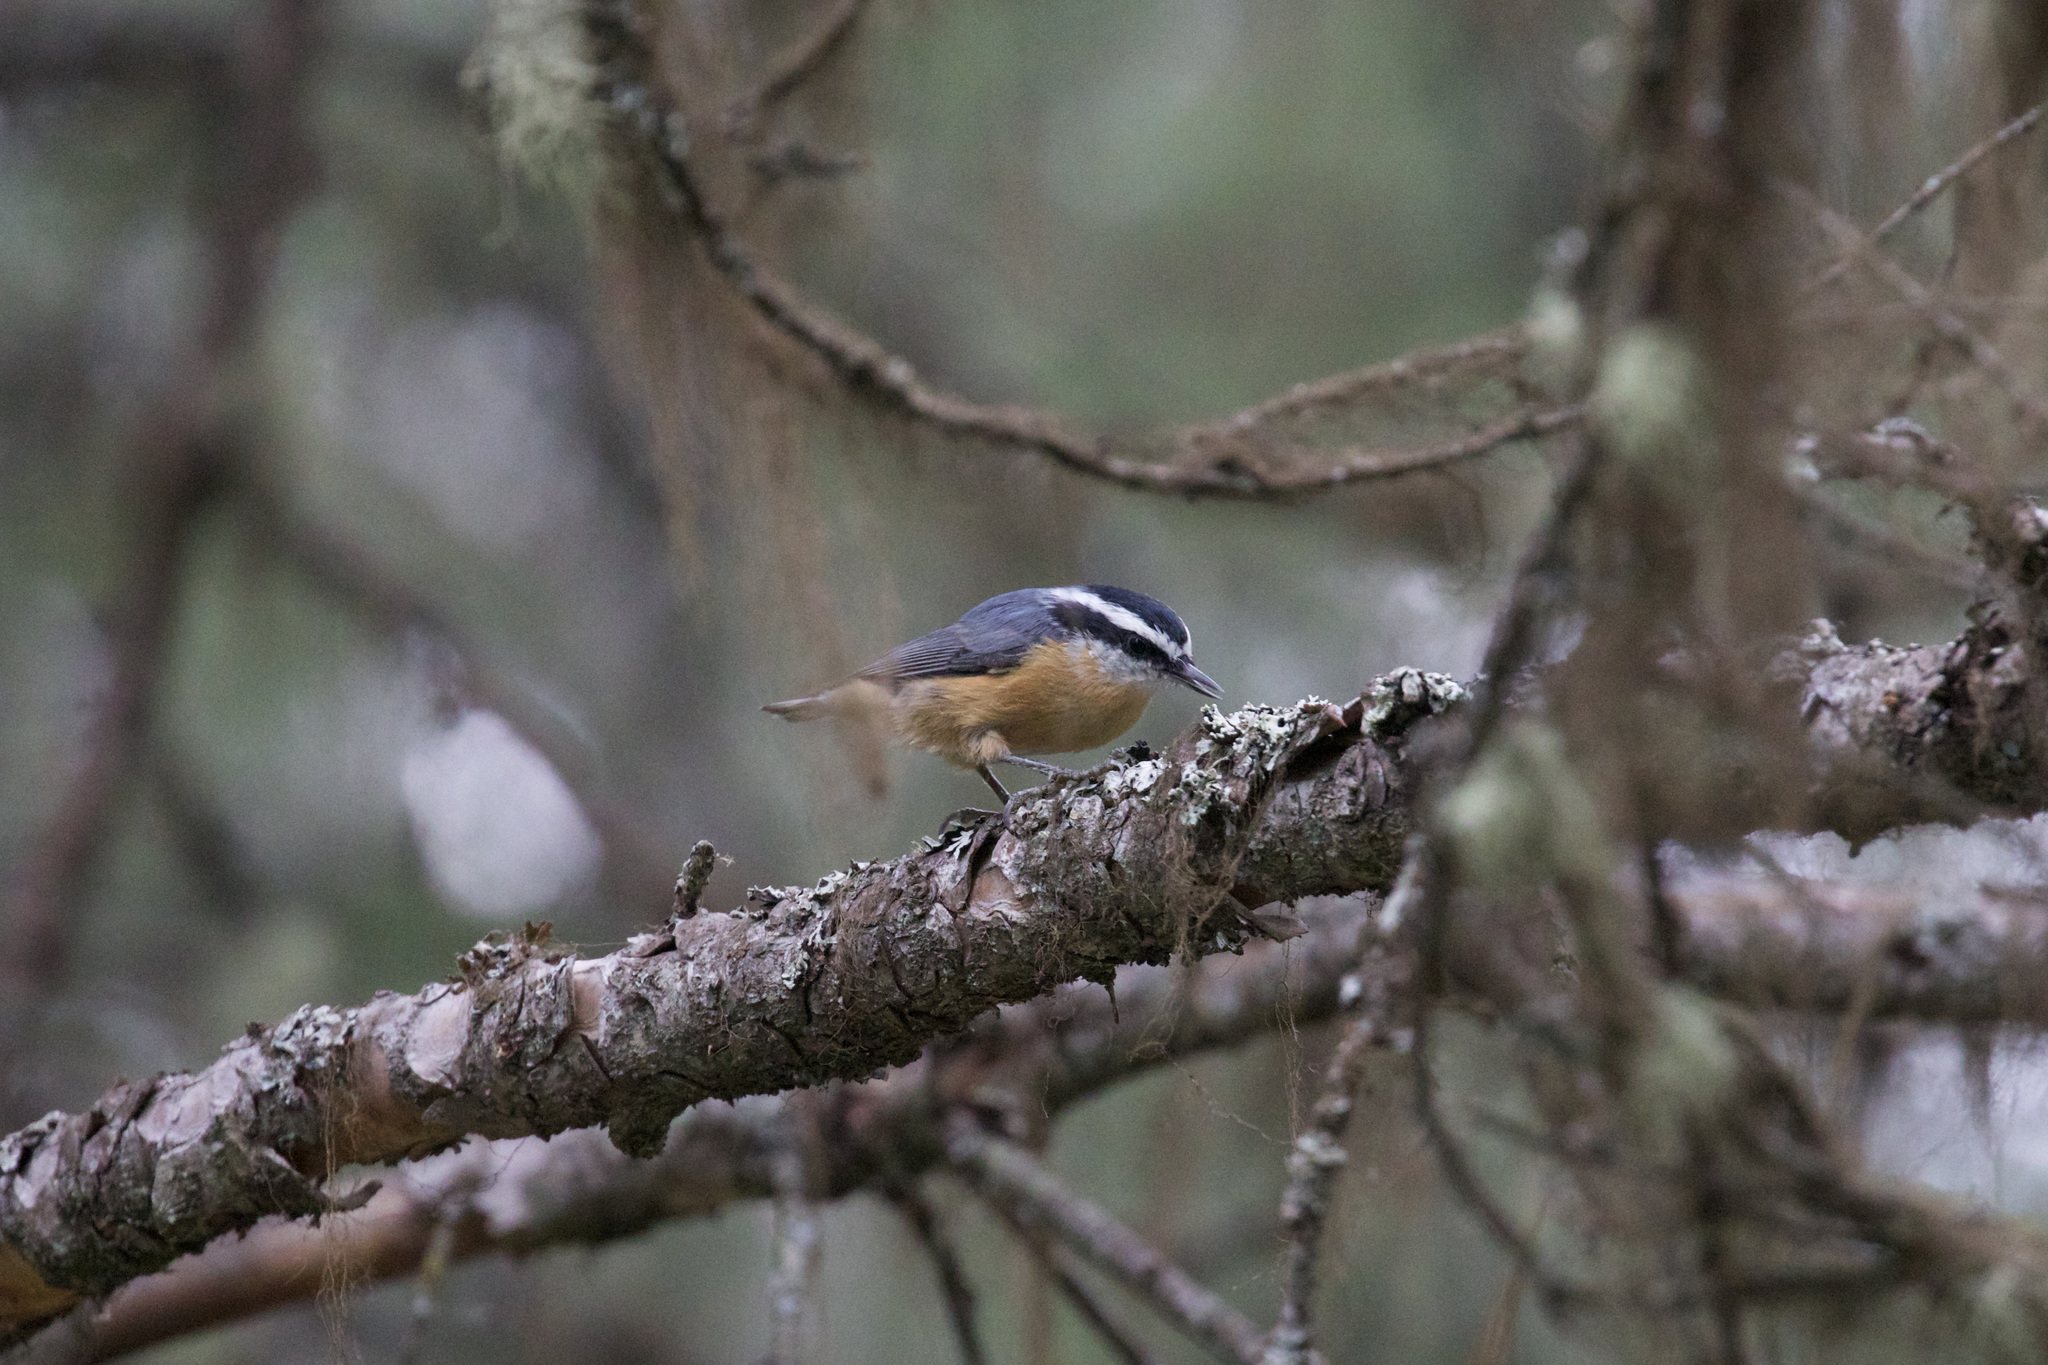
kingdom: Animalia
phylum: Chordata
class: Aves
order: Passeriformes
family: Sittidae
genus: Sitta
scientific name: Sitta canadensis
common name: Red-breasted nuthatch
